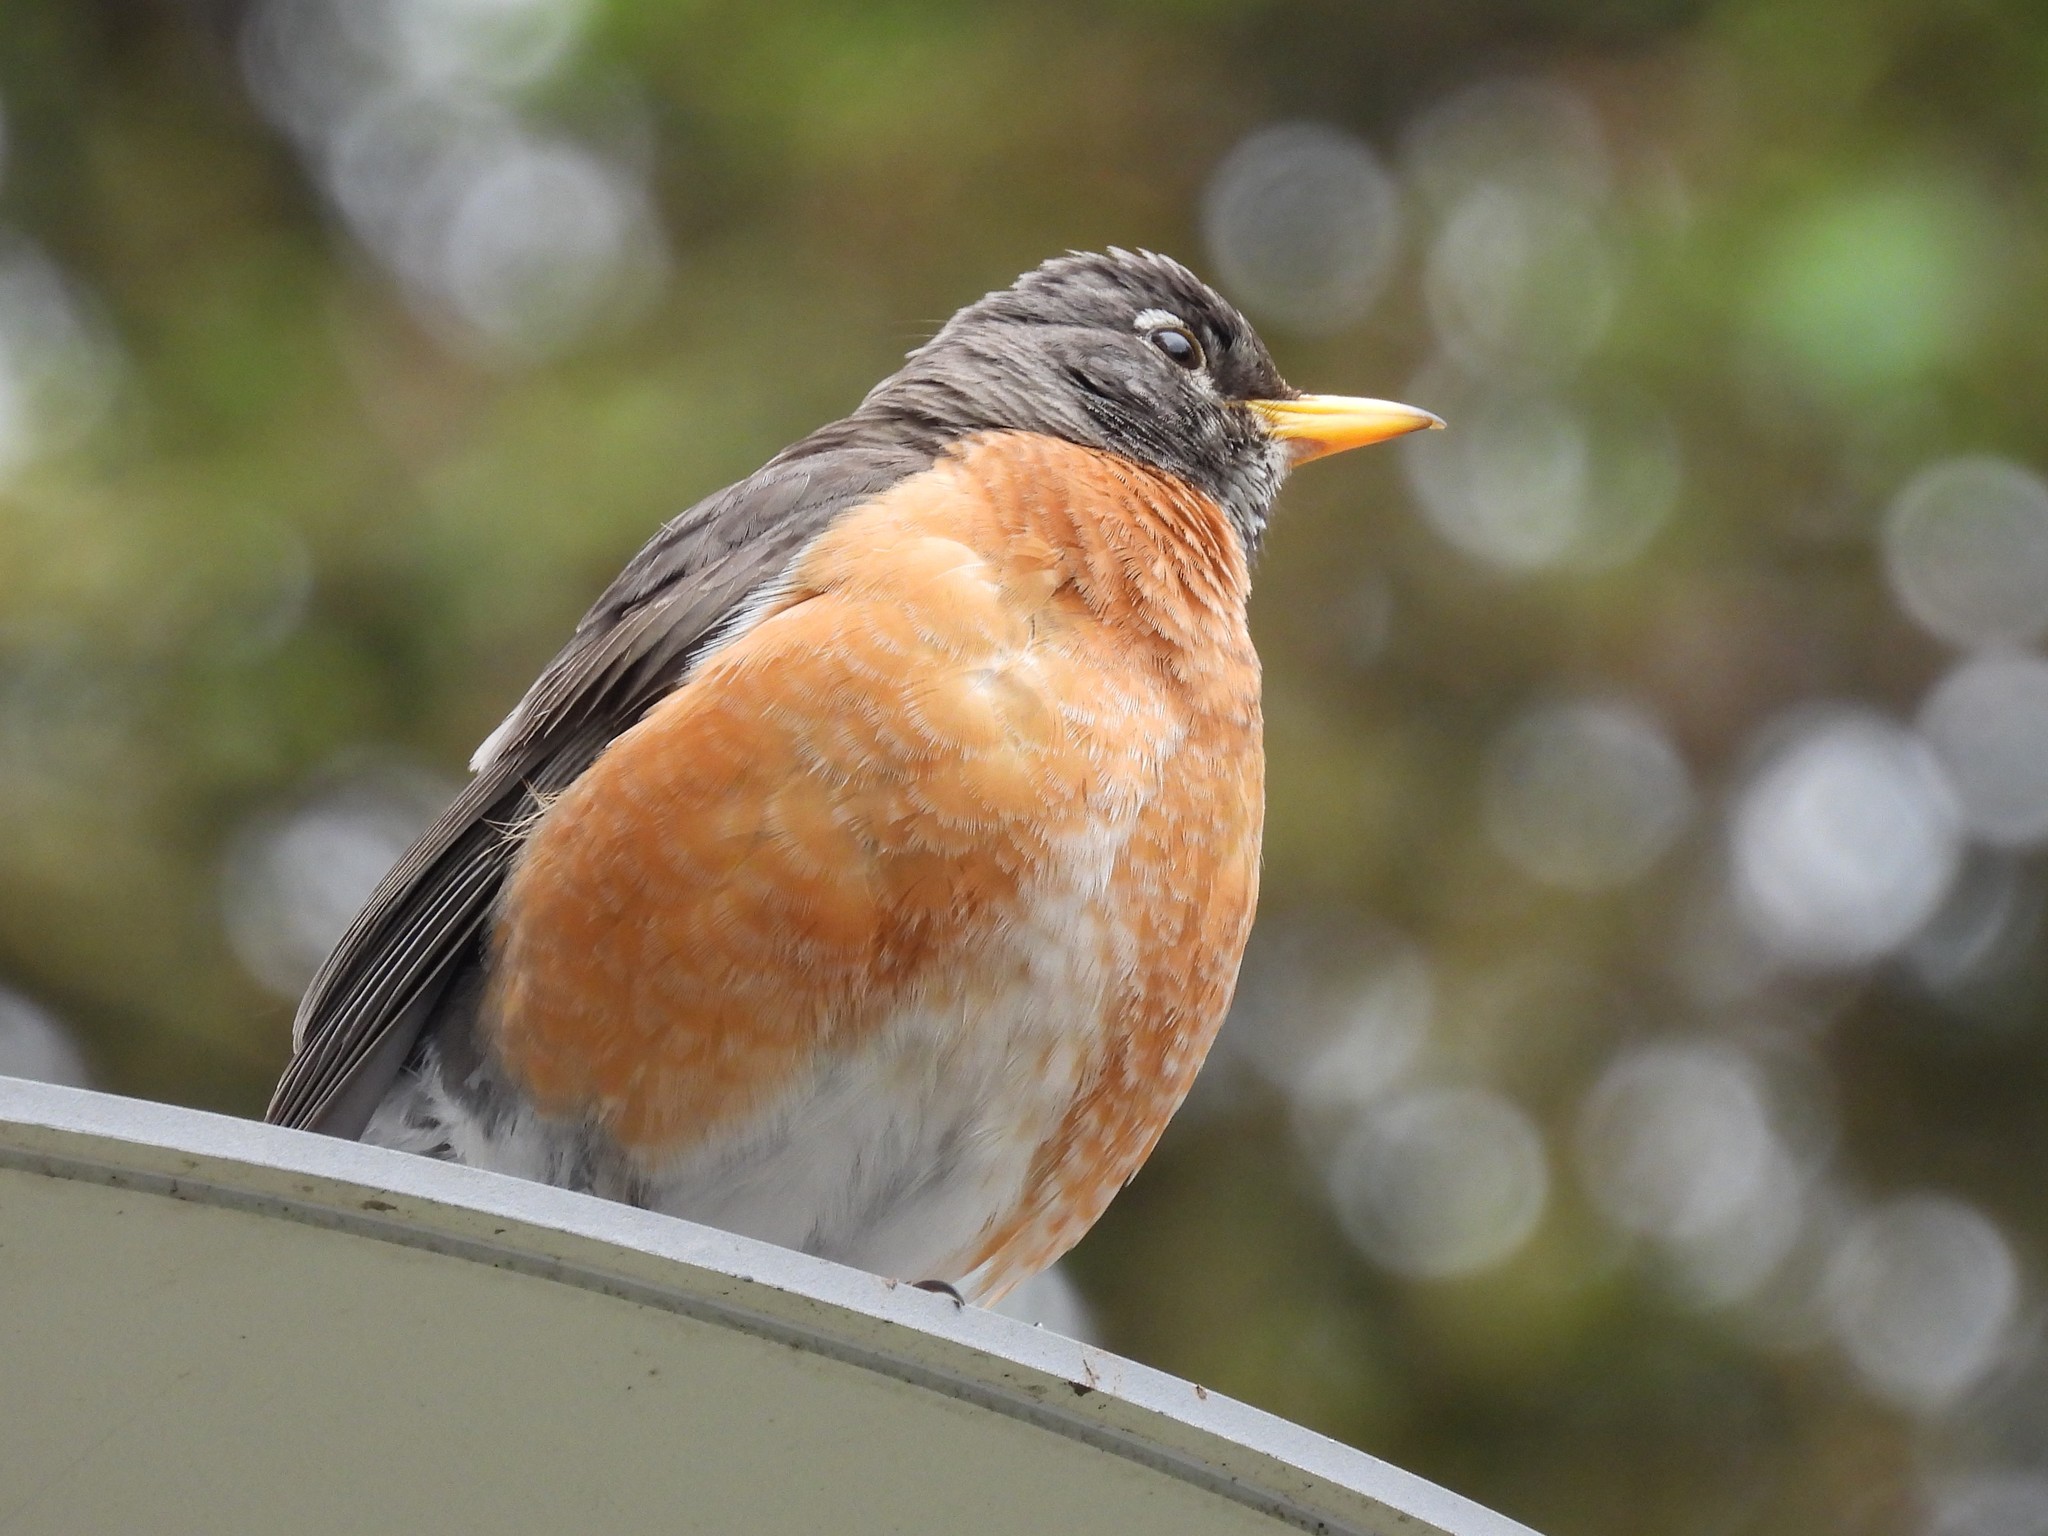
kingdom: Animalia
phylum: Chordata
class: Aves
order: Passeriformes
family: Turdidae
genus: Turdus
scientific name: Turdus migratorius
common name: American robin
